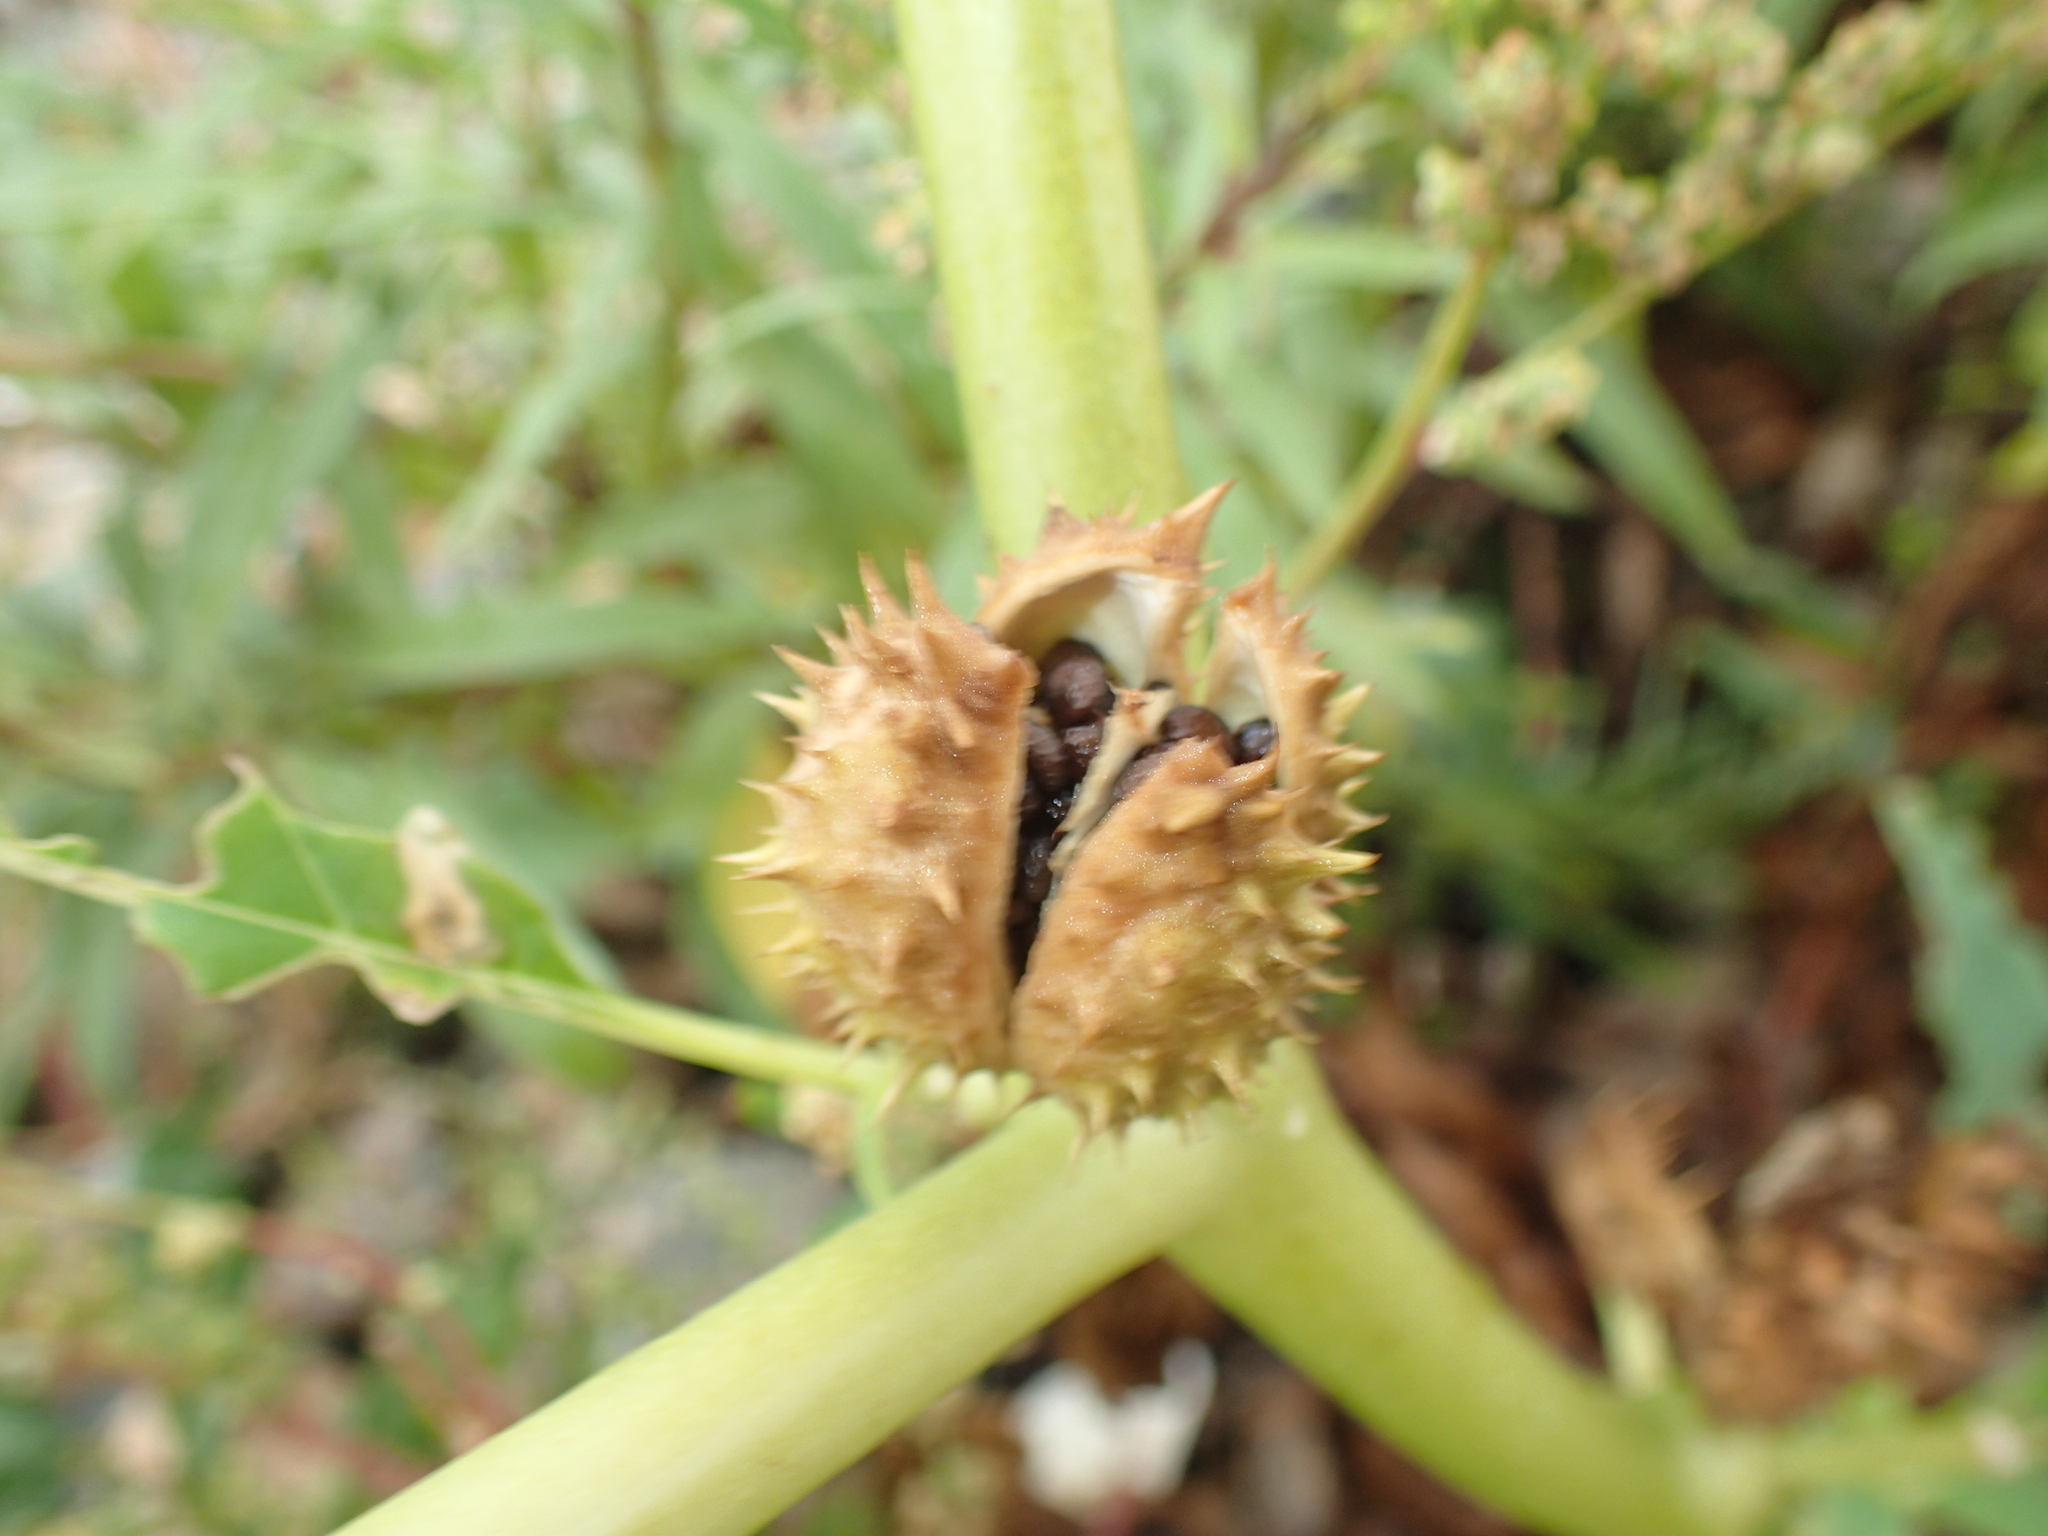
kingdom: Plantae
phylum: Tracheophyta
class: Magnoliopsida
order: Solanales
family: Solanaceae
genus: Datura
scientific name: Datura stramonium
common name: Thorn-apple
